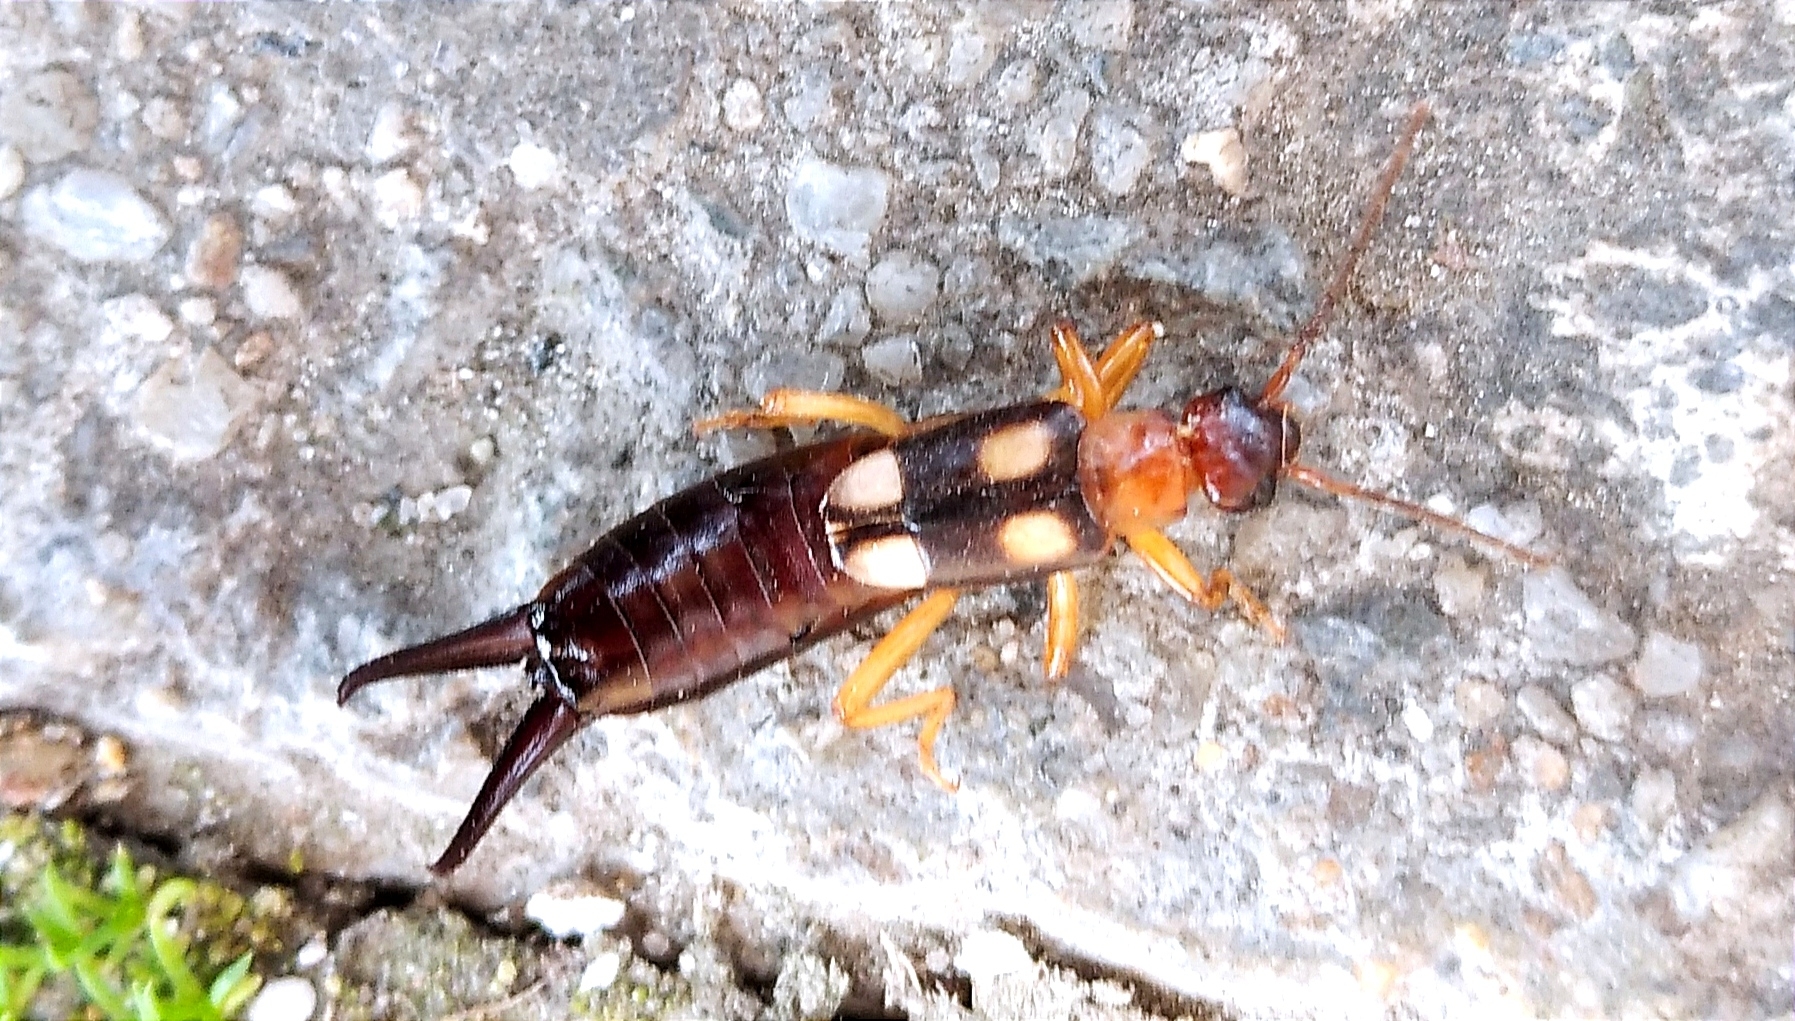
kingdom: Animalia
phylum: Arthropoda
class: Insecta
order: Dermaptera
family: Forficulidae
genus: Forficula
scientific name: Forficula smyrnensis
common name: Smyrna earwig
